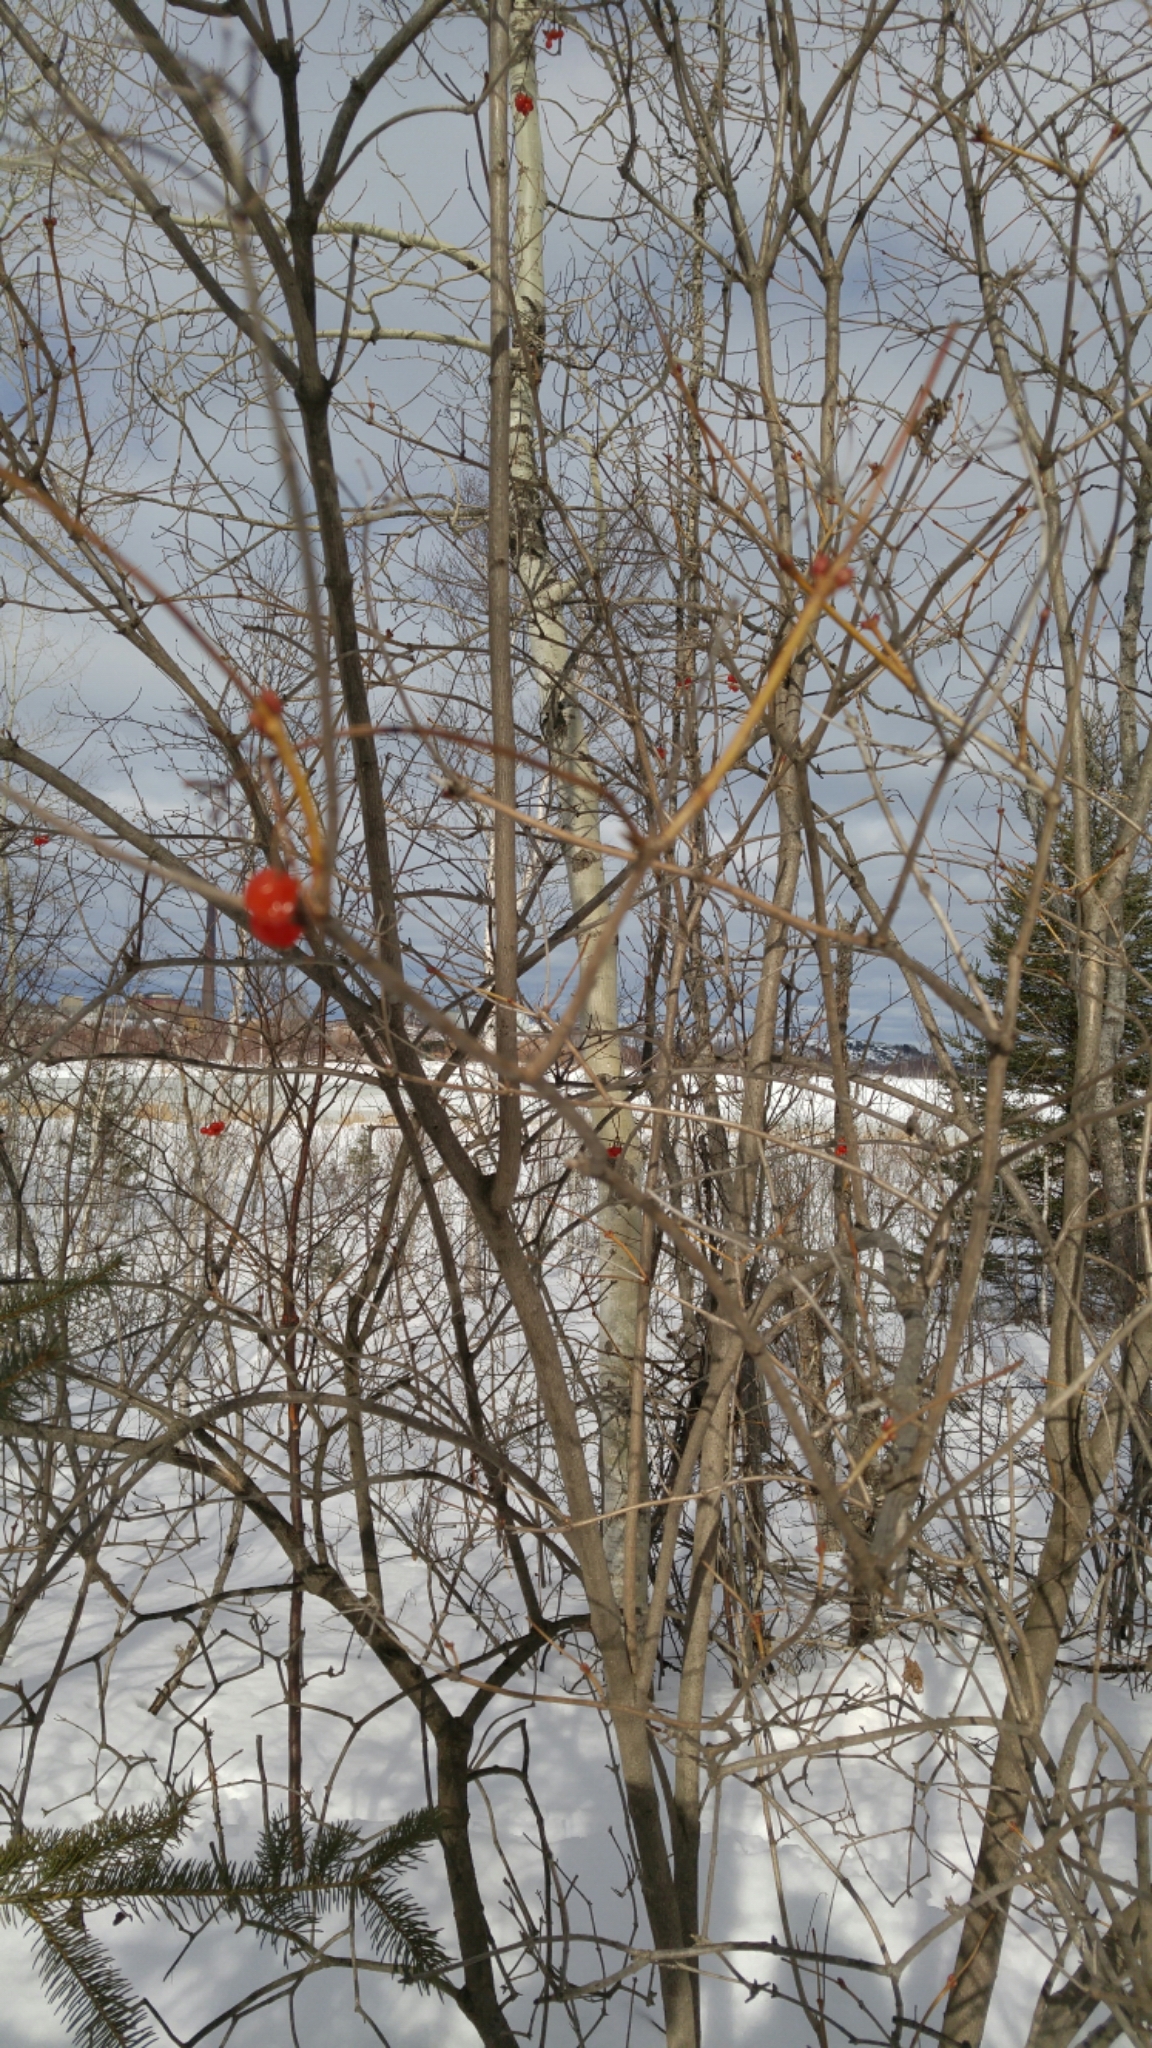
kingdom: Plantae
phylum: Tracheophyta
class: Magnoliopsida
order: Dipsacales
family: Viburnaceae
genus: Viburnum
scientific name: Viburnum opulus
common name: Guelder-rose
